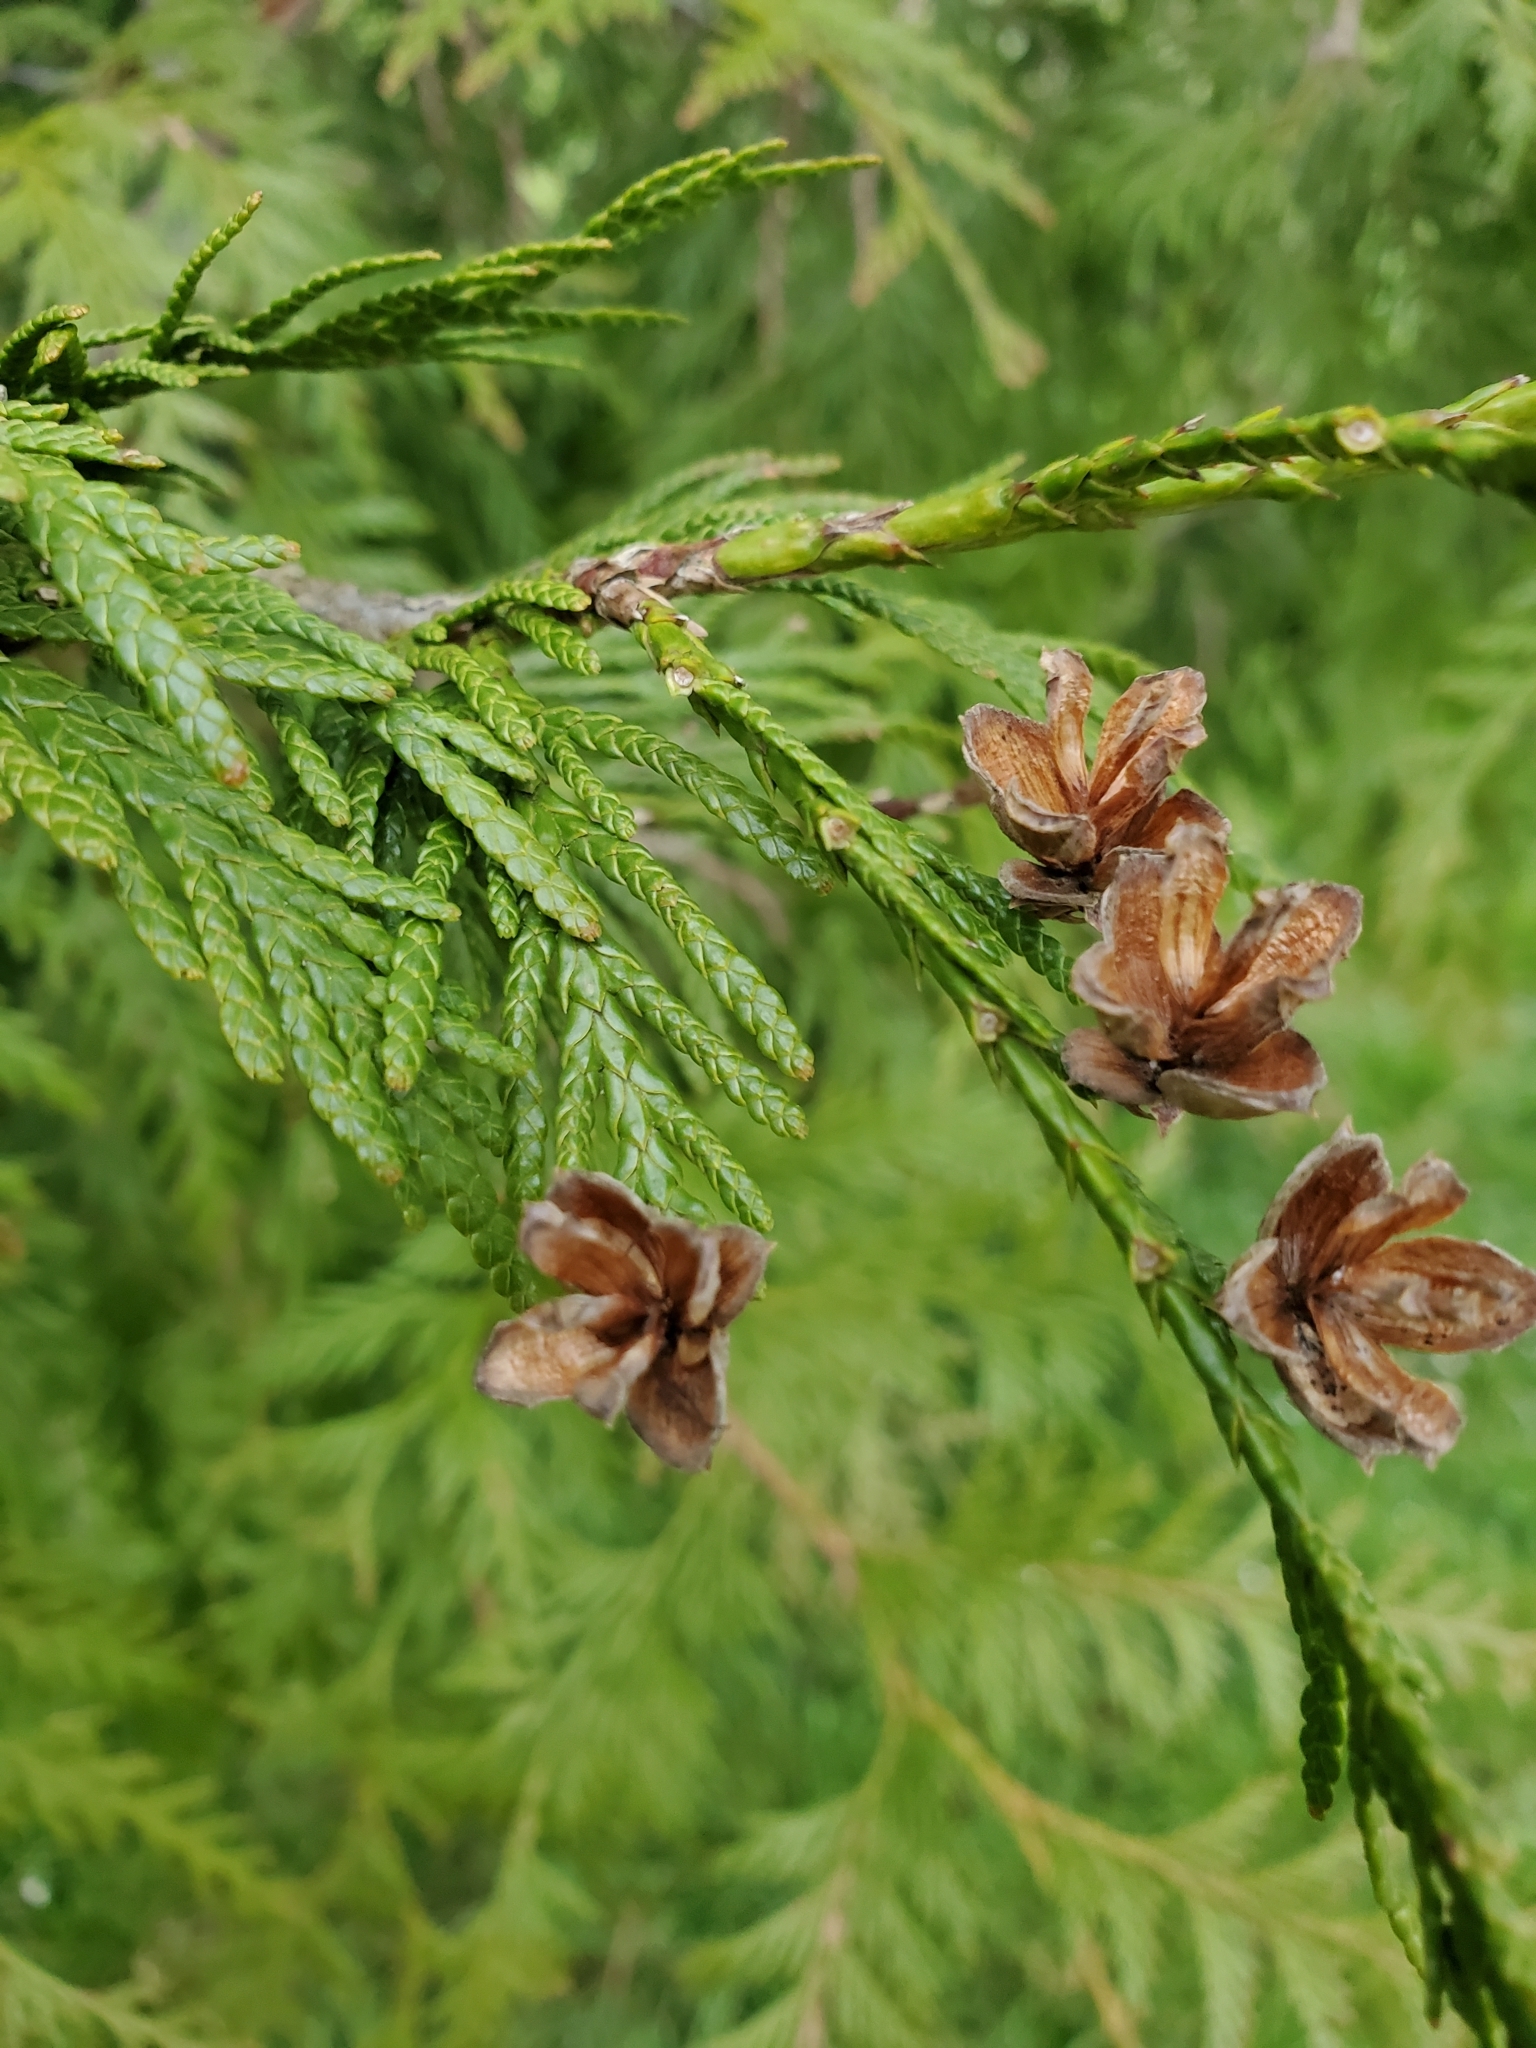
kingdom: Plantae
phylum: Tracheophyta
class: Pinopsida
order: Pinales
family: Cupressaceae
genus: Thuja
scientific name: Thuja plicata
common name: Western red-cedar
